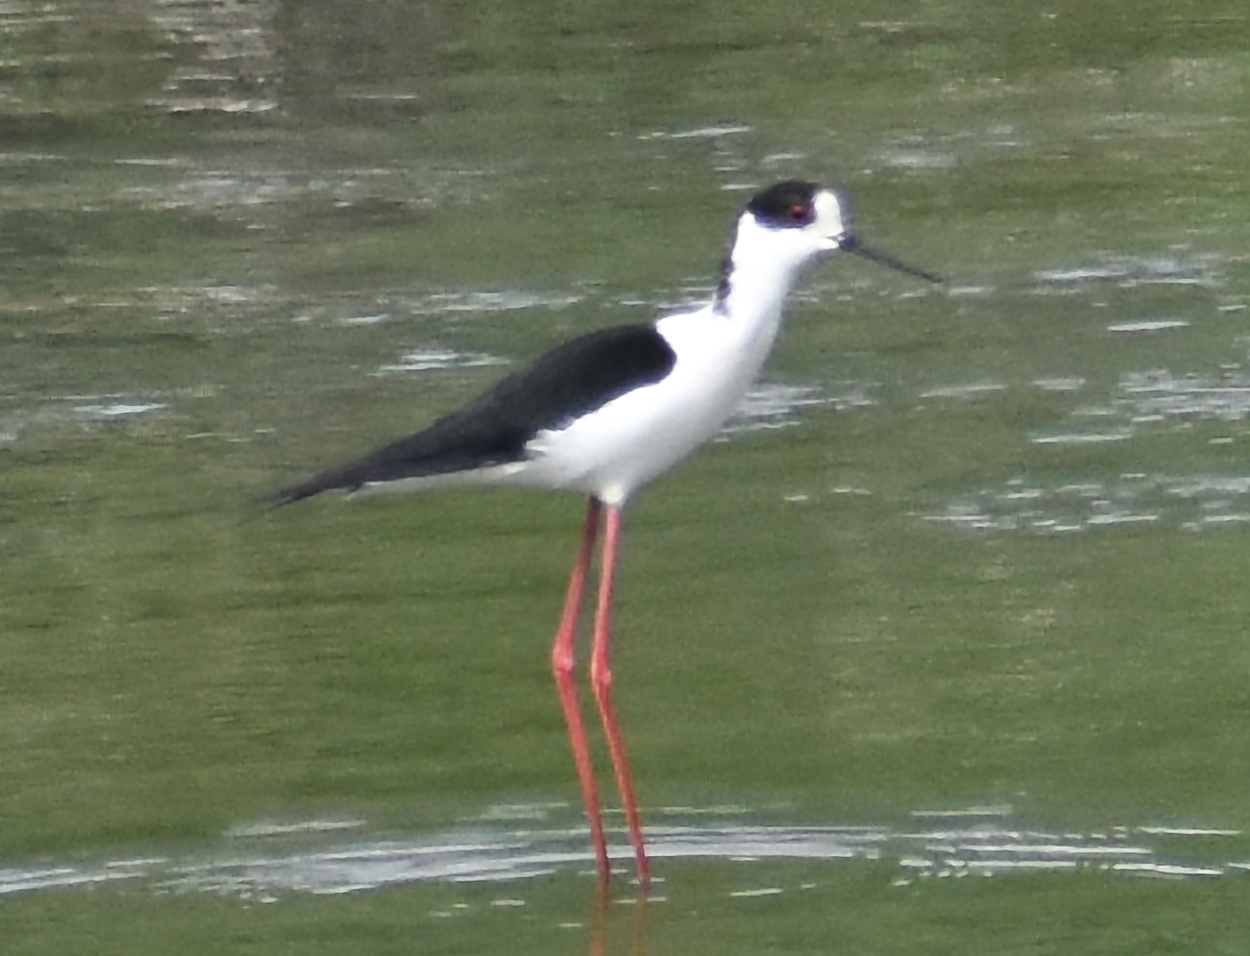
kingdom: Animalia
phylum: Chordata
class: Aves
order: Charadriiformes
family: Recurvirostridae
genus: Himantopus
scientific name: Himantopus himantopus
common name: Black-winged stilt
